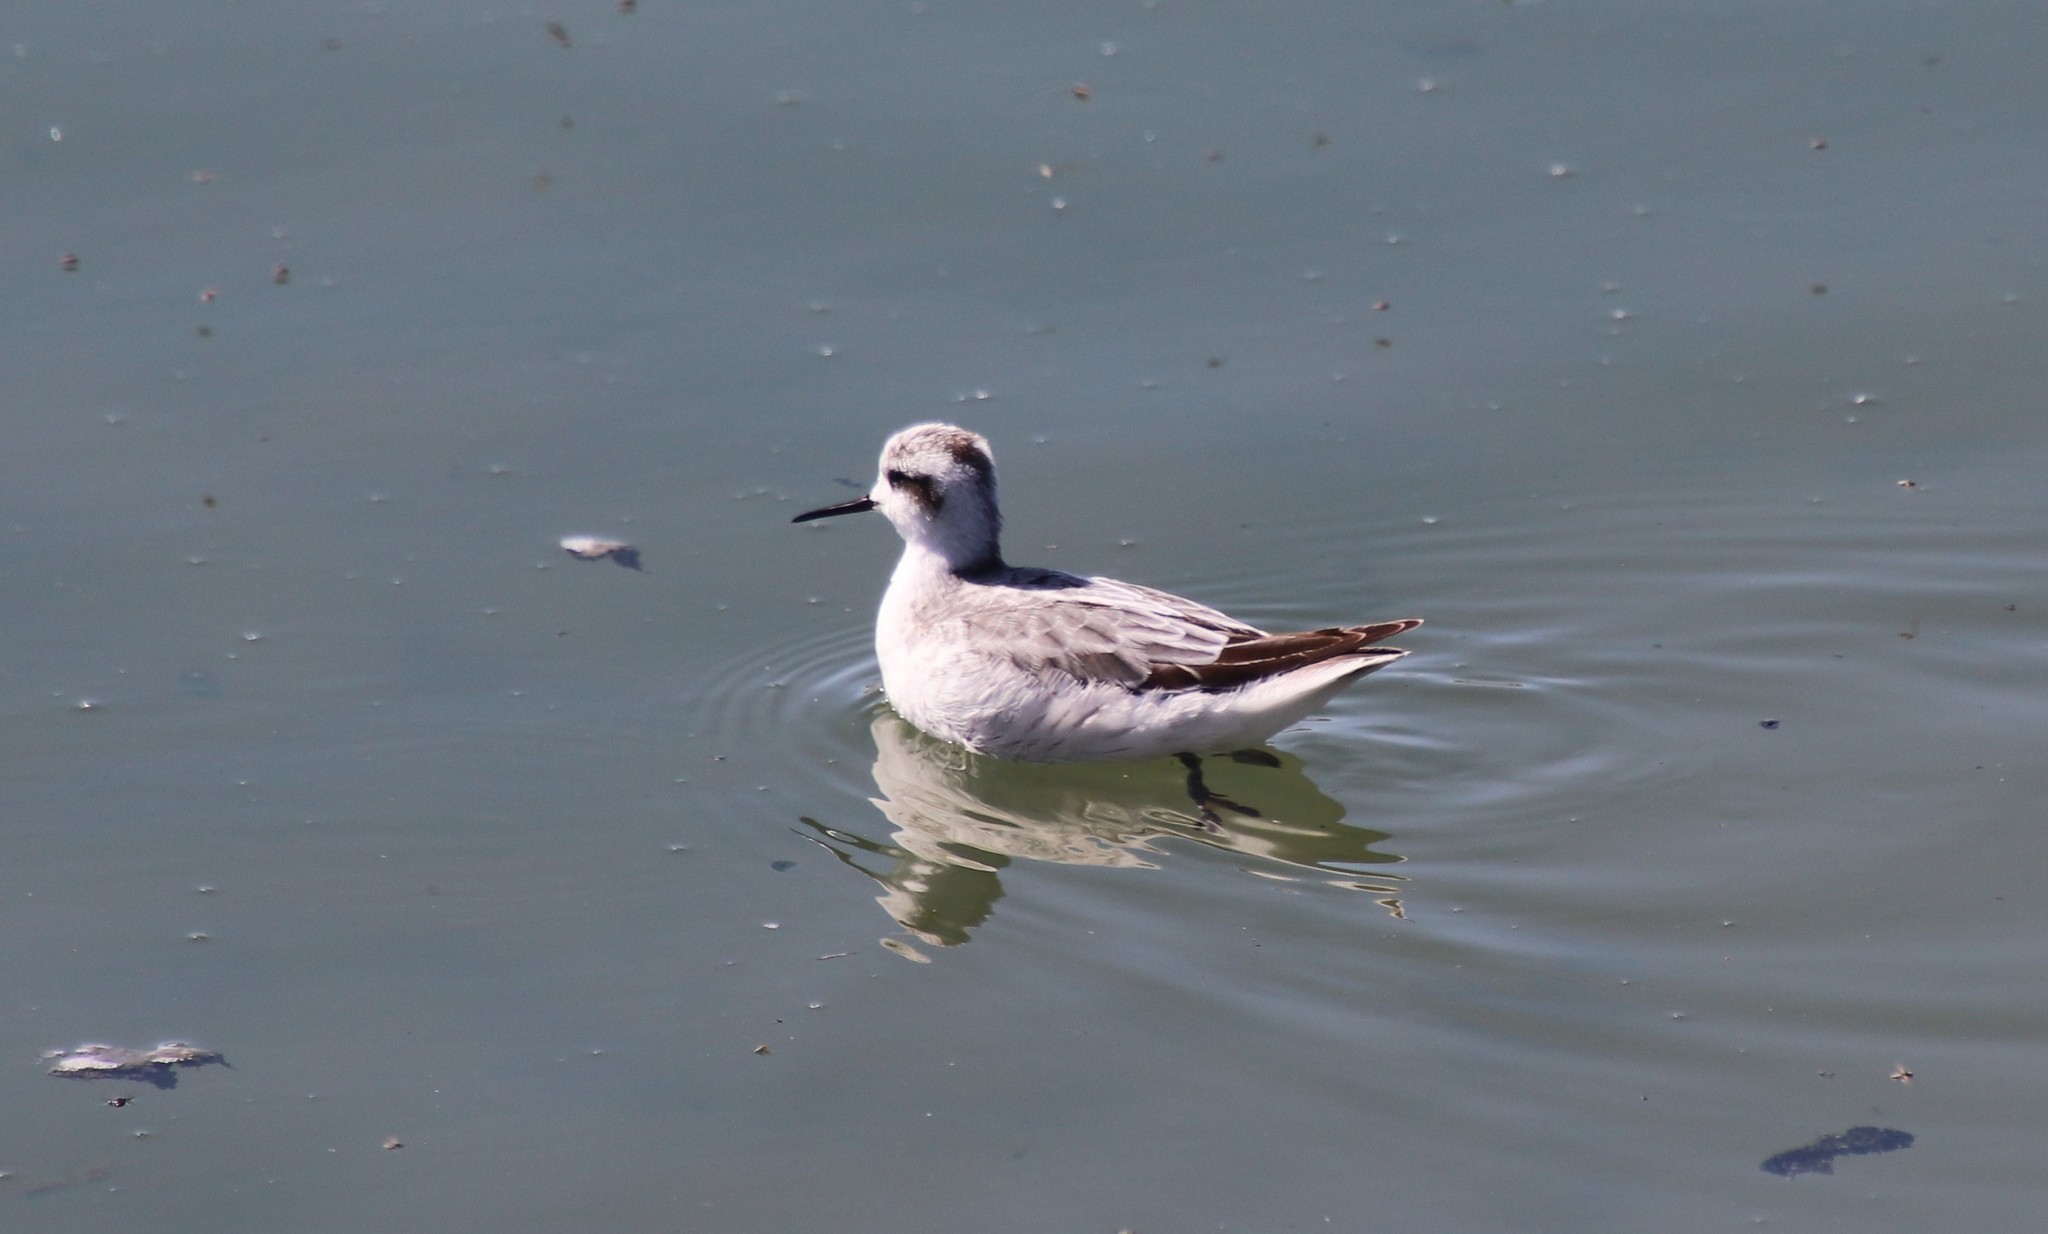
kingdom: Animalia
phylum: Chordata
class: Aves
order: Charadriiformes
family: Scolopacidae
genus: Phalaropus
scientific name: Phalaropus lobatus
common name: Red-necked phalarope
